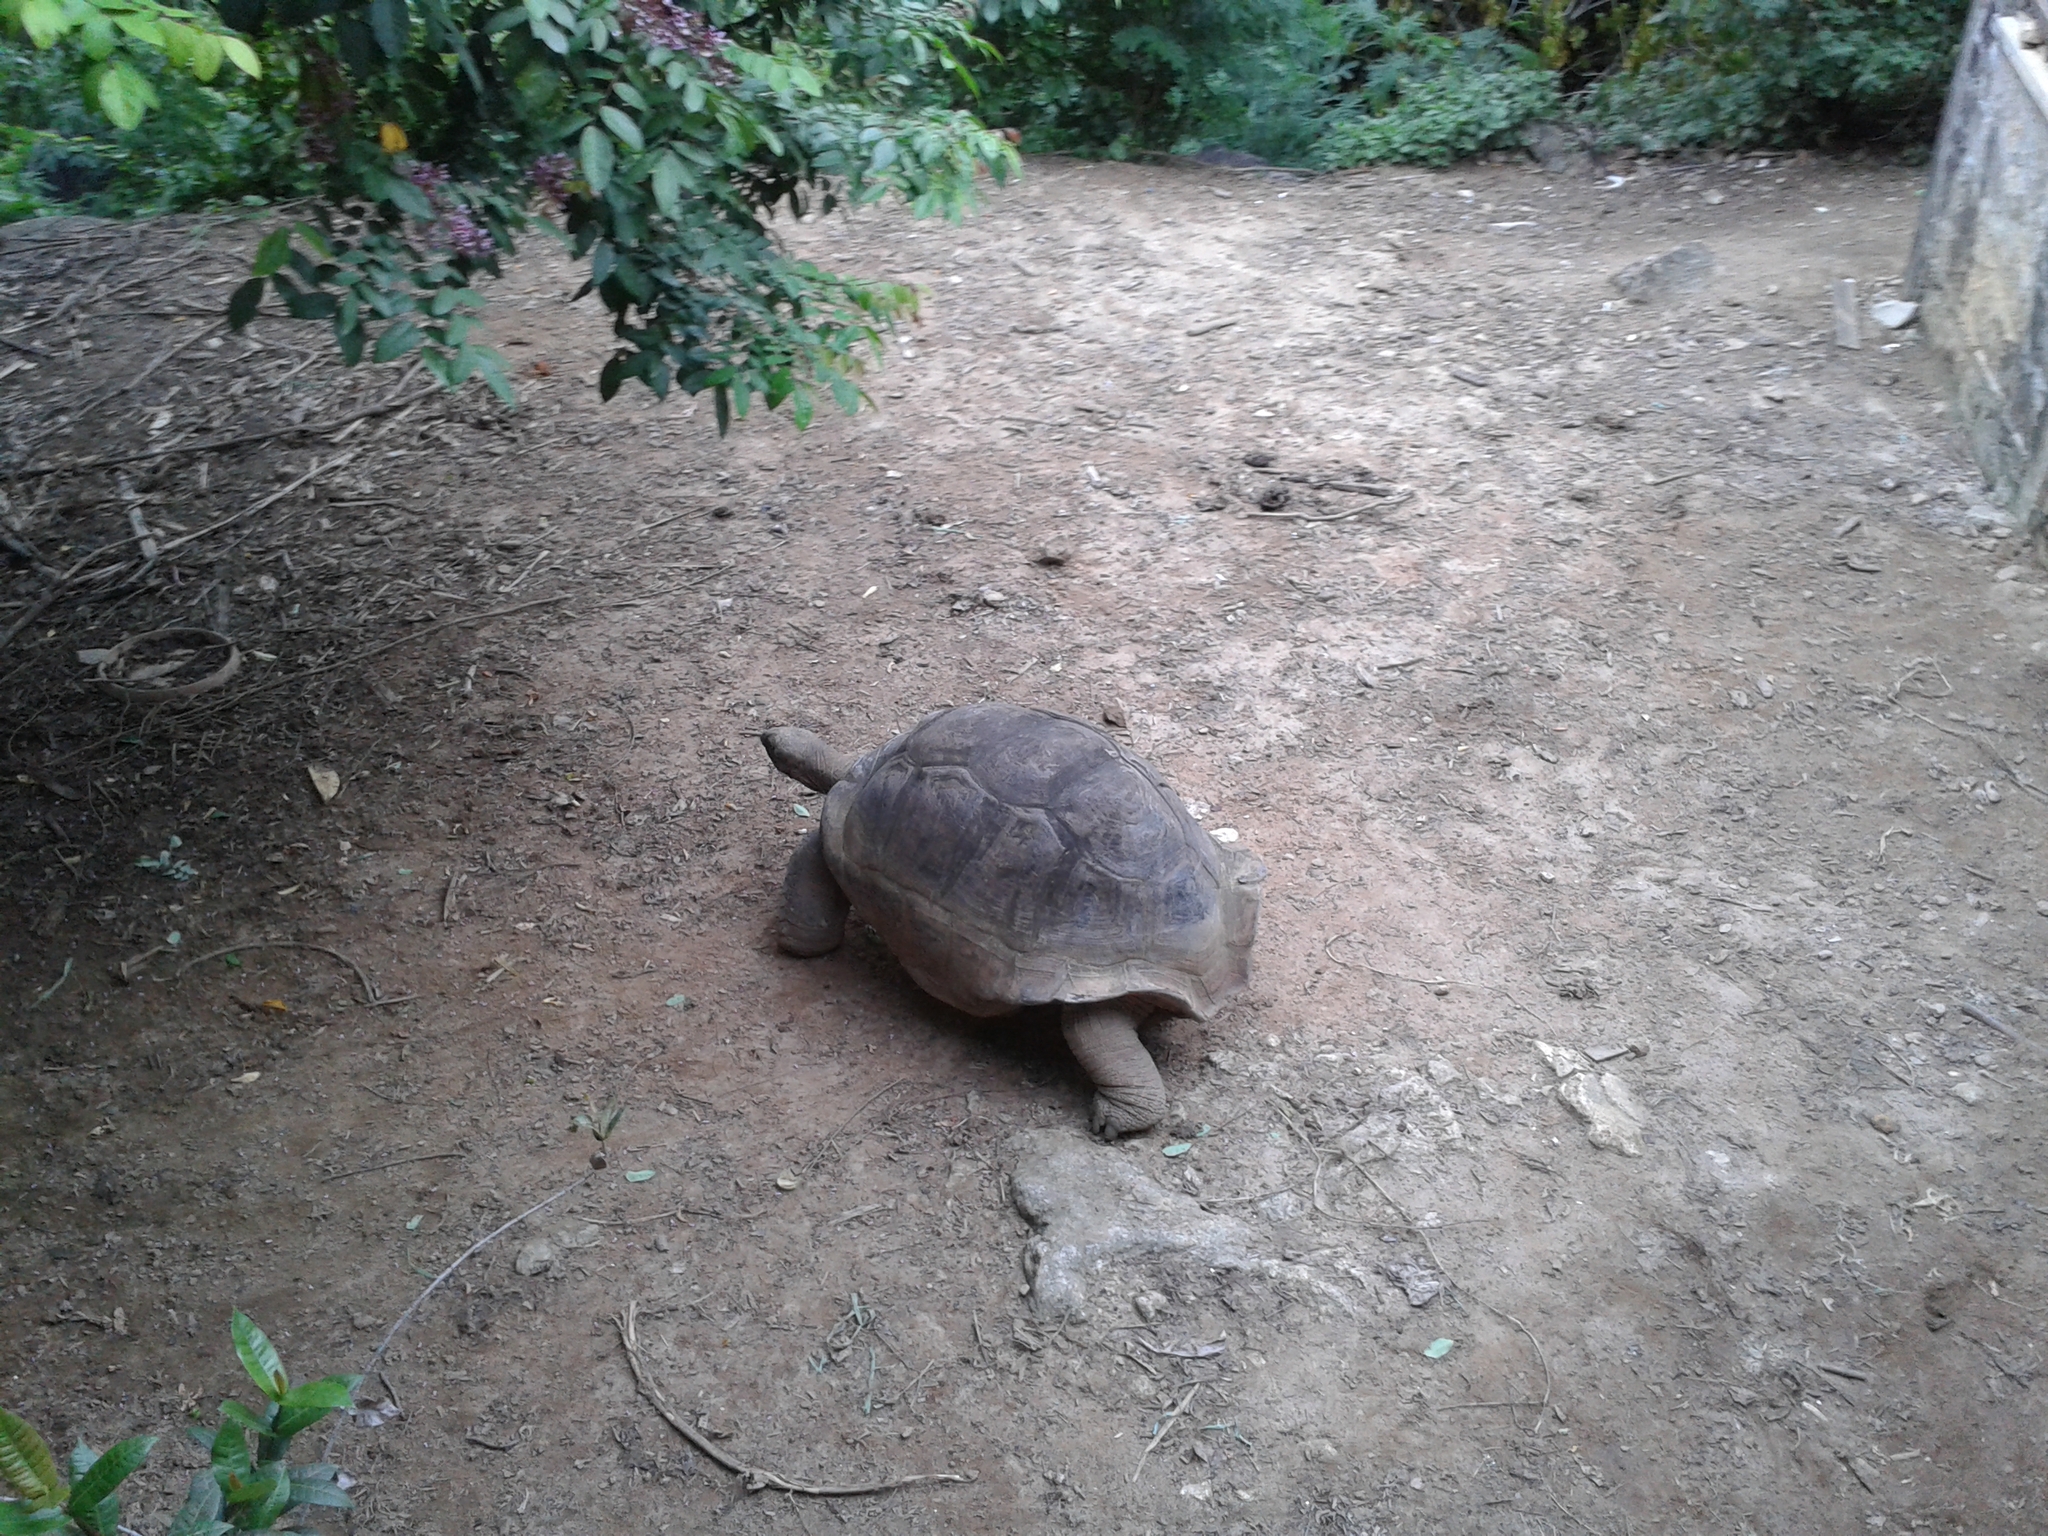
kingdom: Animalia
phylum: Chordata
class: Testudines
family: Testudinidae
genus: Aldabrachelys
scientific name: Aldabrachelys gigantea
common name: Aldabra giant tortoise
